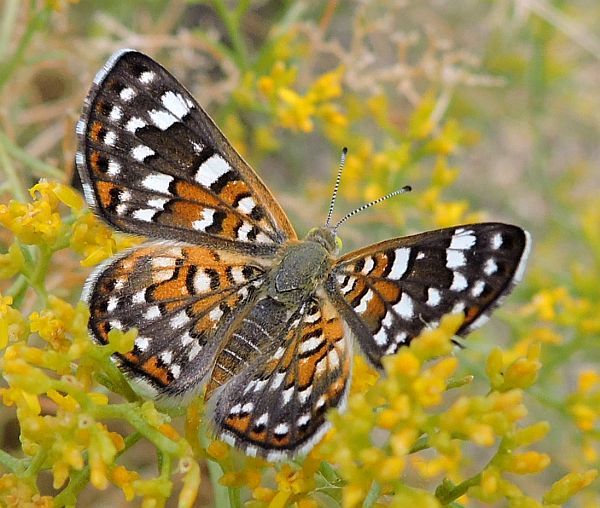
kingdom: Animalia
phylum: Arthropoda
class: Insecta
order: Lepidoptera
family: Riodinidae
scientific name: Riodinidae
